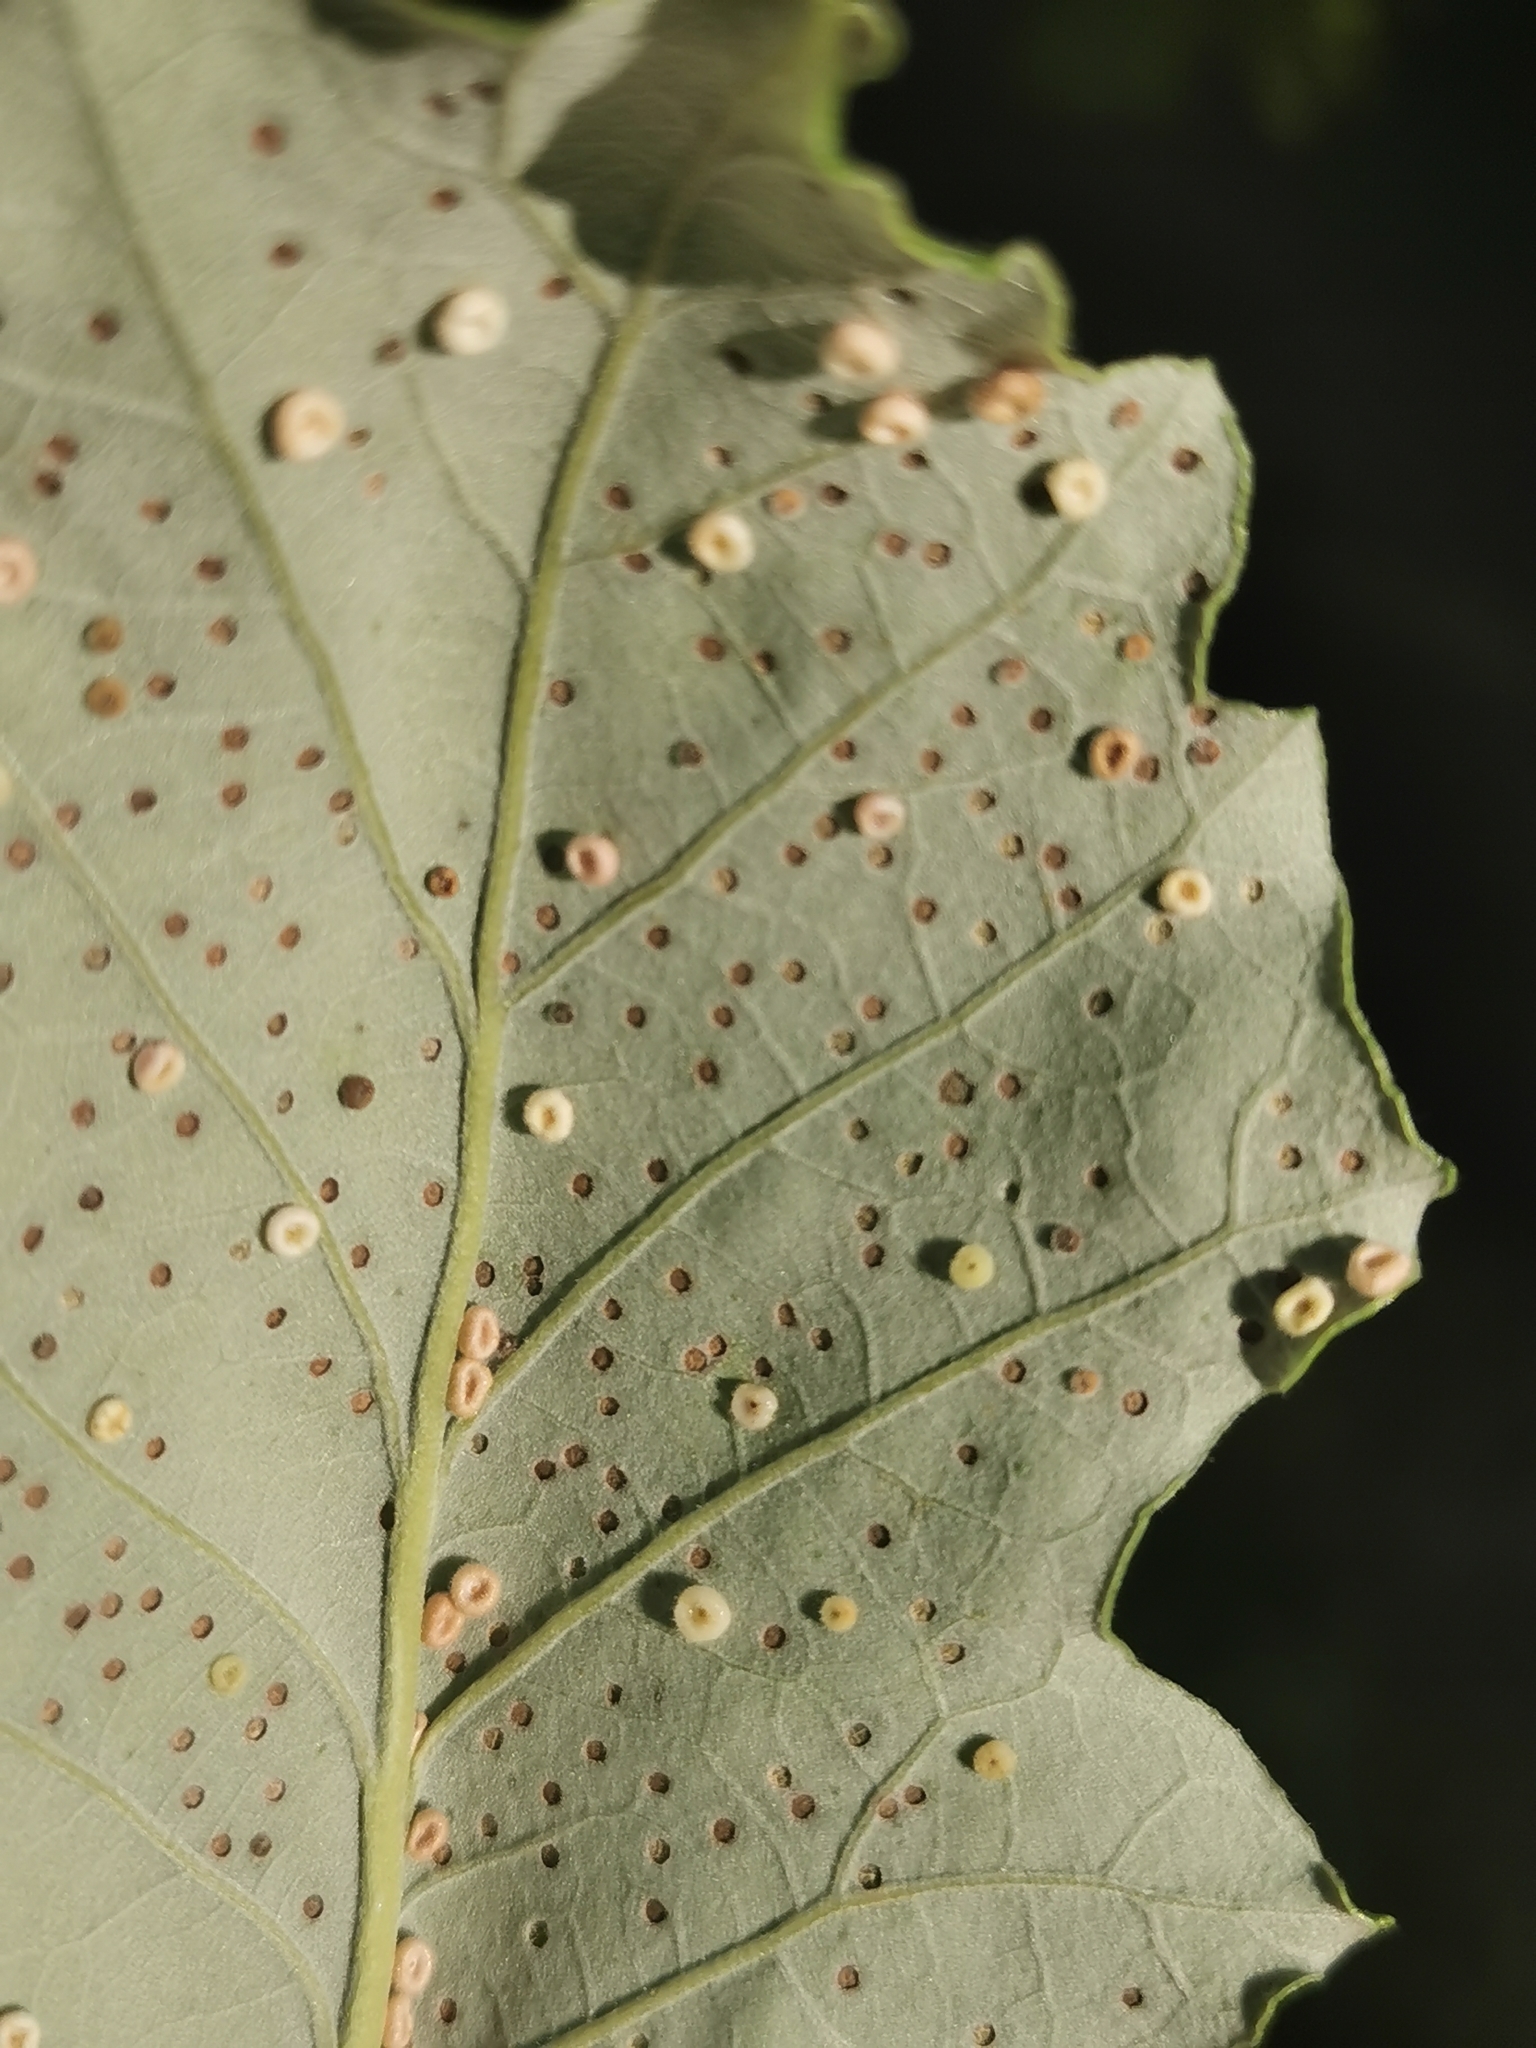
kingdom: Animalia
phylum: Arthropoda
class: Insecta
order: Hymenoptera
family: Cynipidae
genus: Neuroterus
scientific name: Neuroterus
